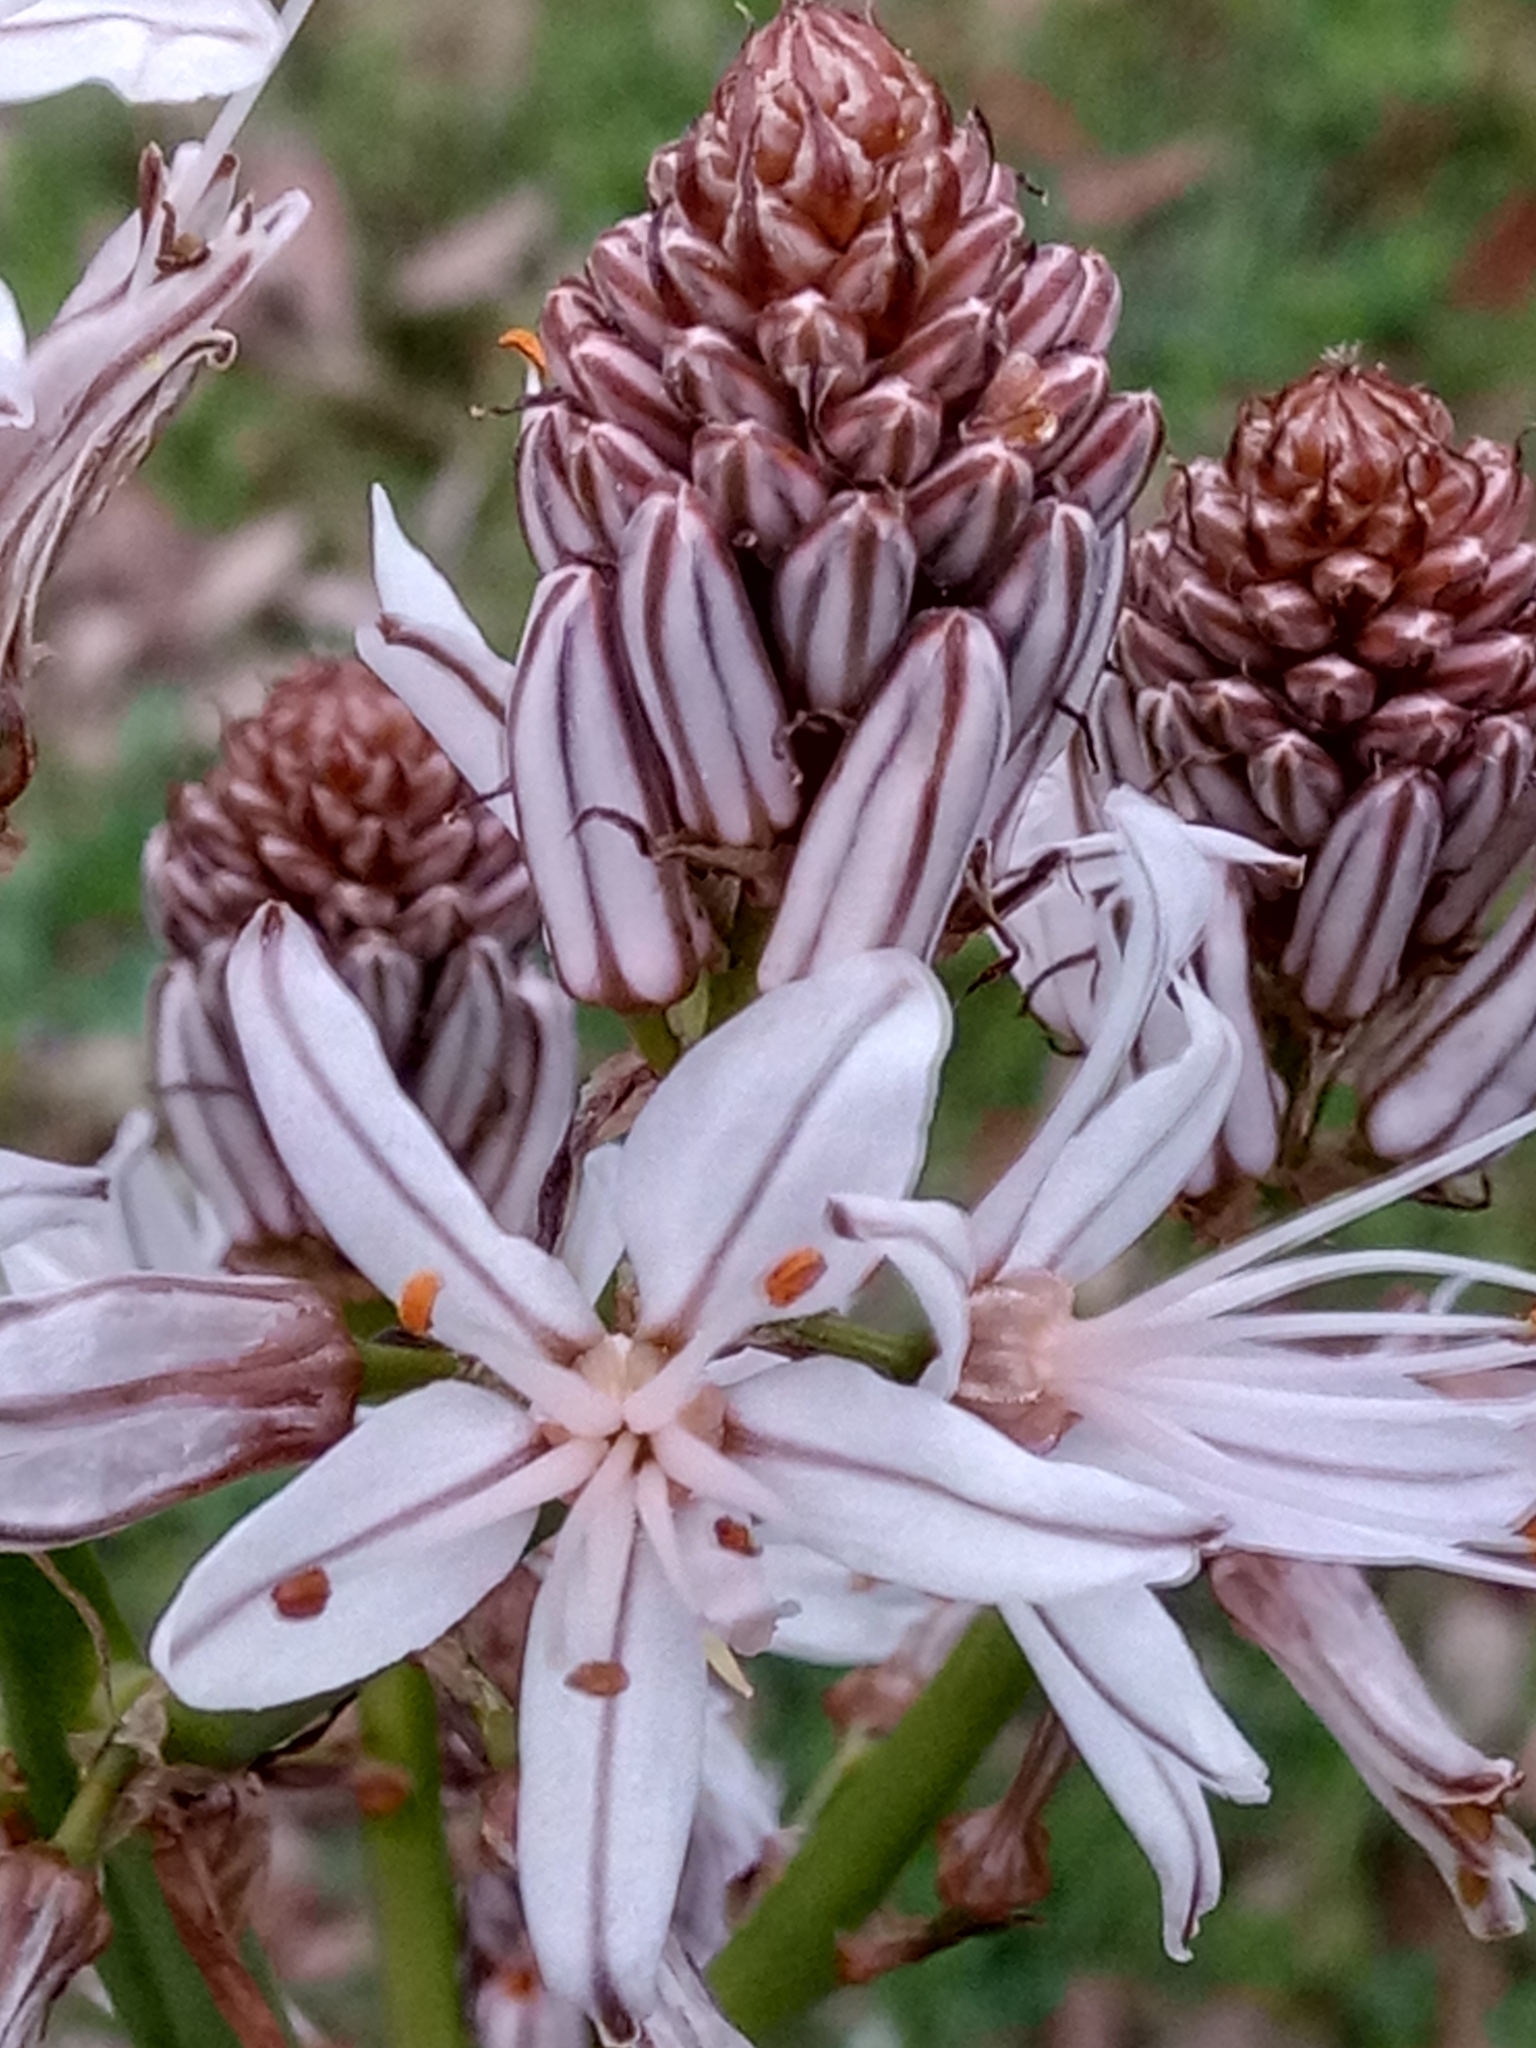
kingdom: Plantae
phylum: Tracheophyta
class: Liliopsida
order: Asparagales
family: Asphodelaceae
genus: Asphodelus
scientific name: Asphodelus ramosus
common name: Silverrod
